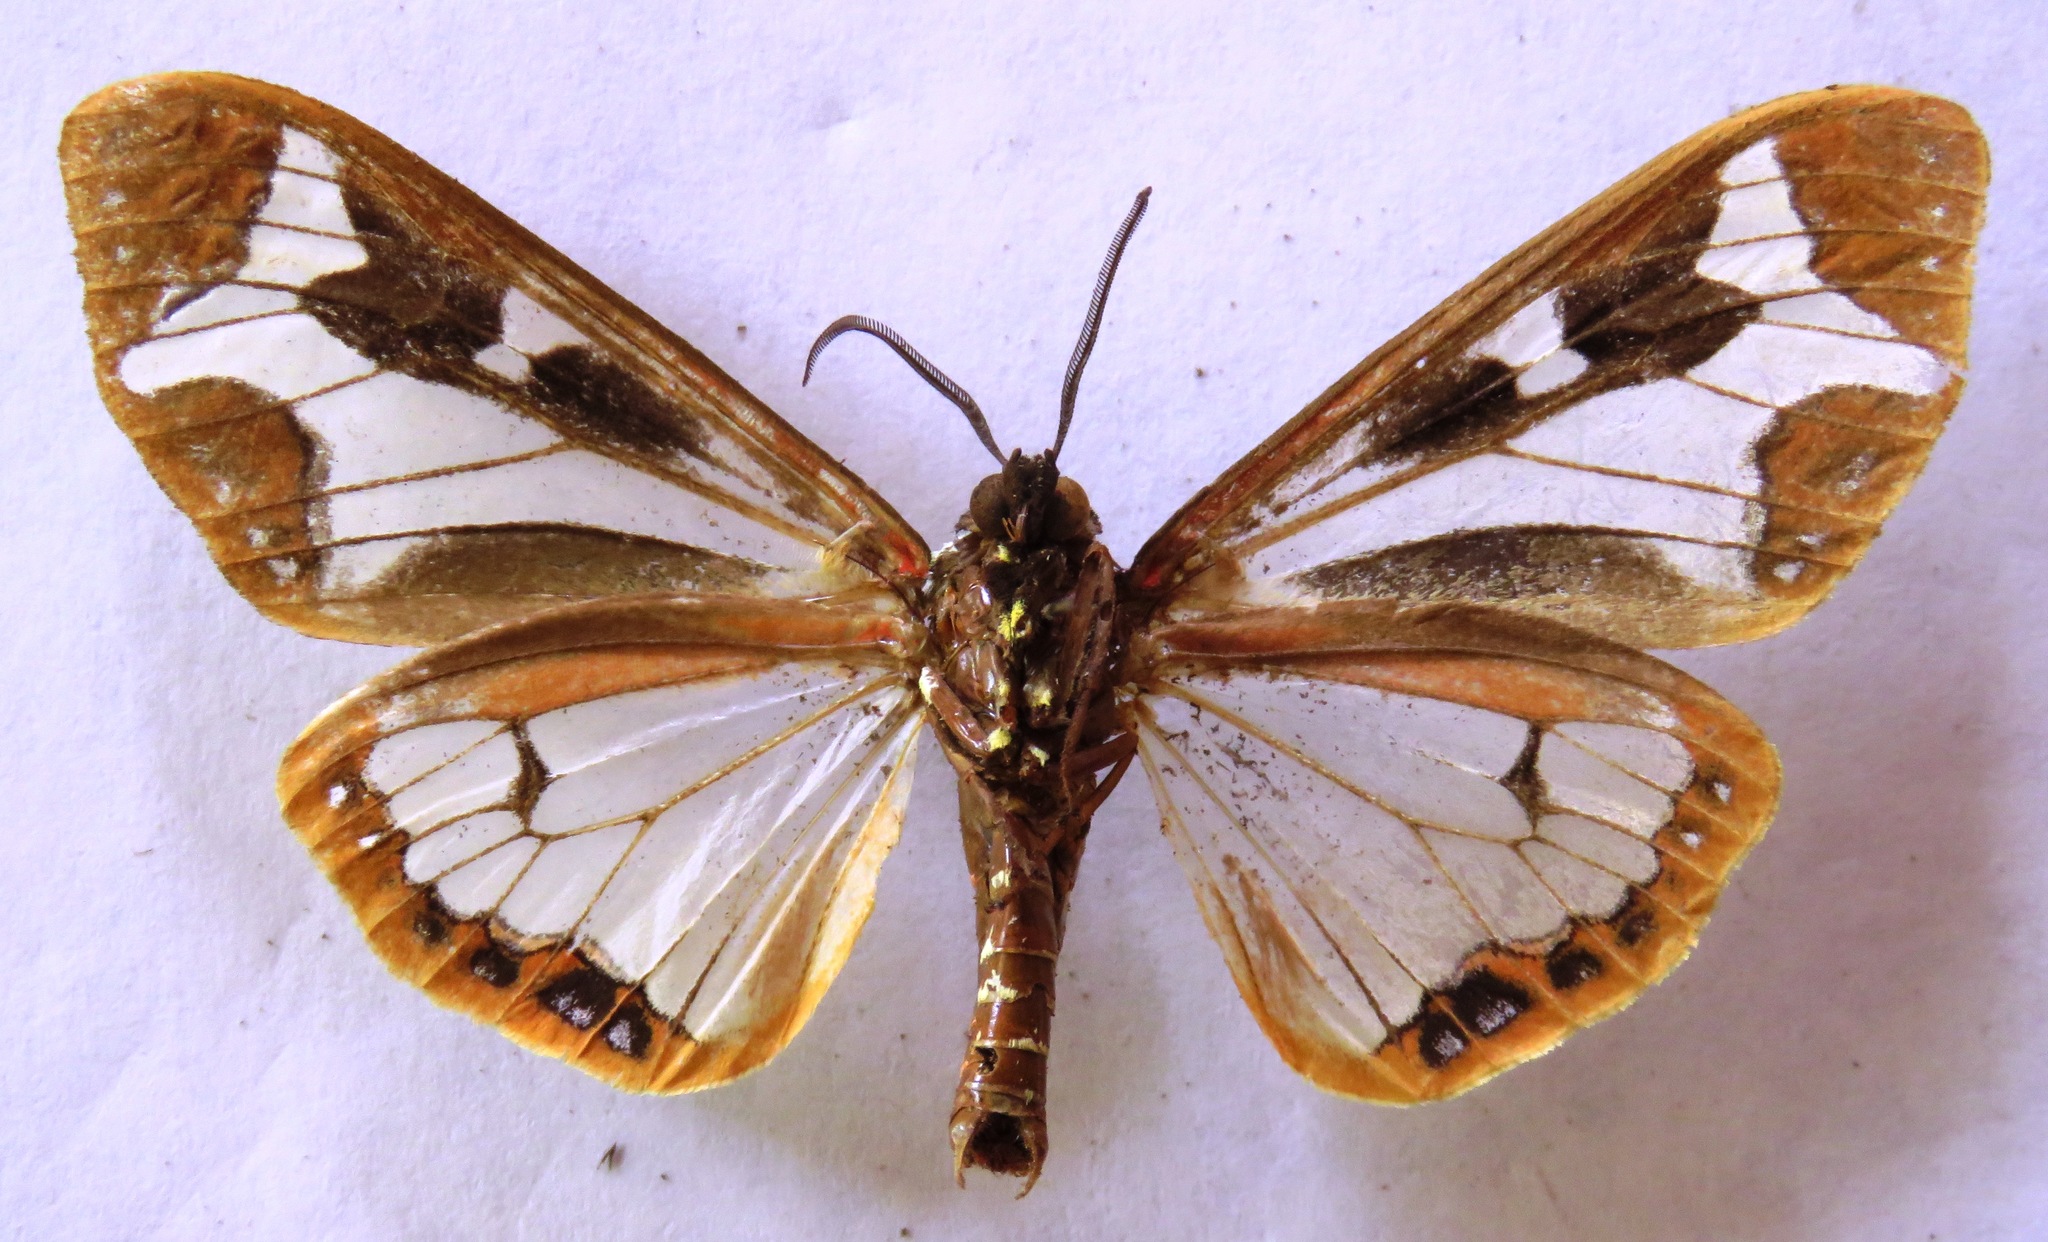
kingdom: Animalia
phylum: Arthropoda
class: Insecta
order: Lepidoptera
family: Erebidae
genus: Dysschema
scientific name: Dysschema mariamne
